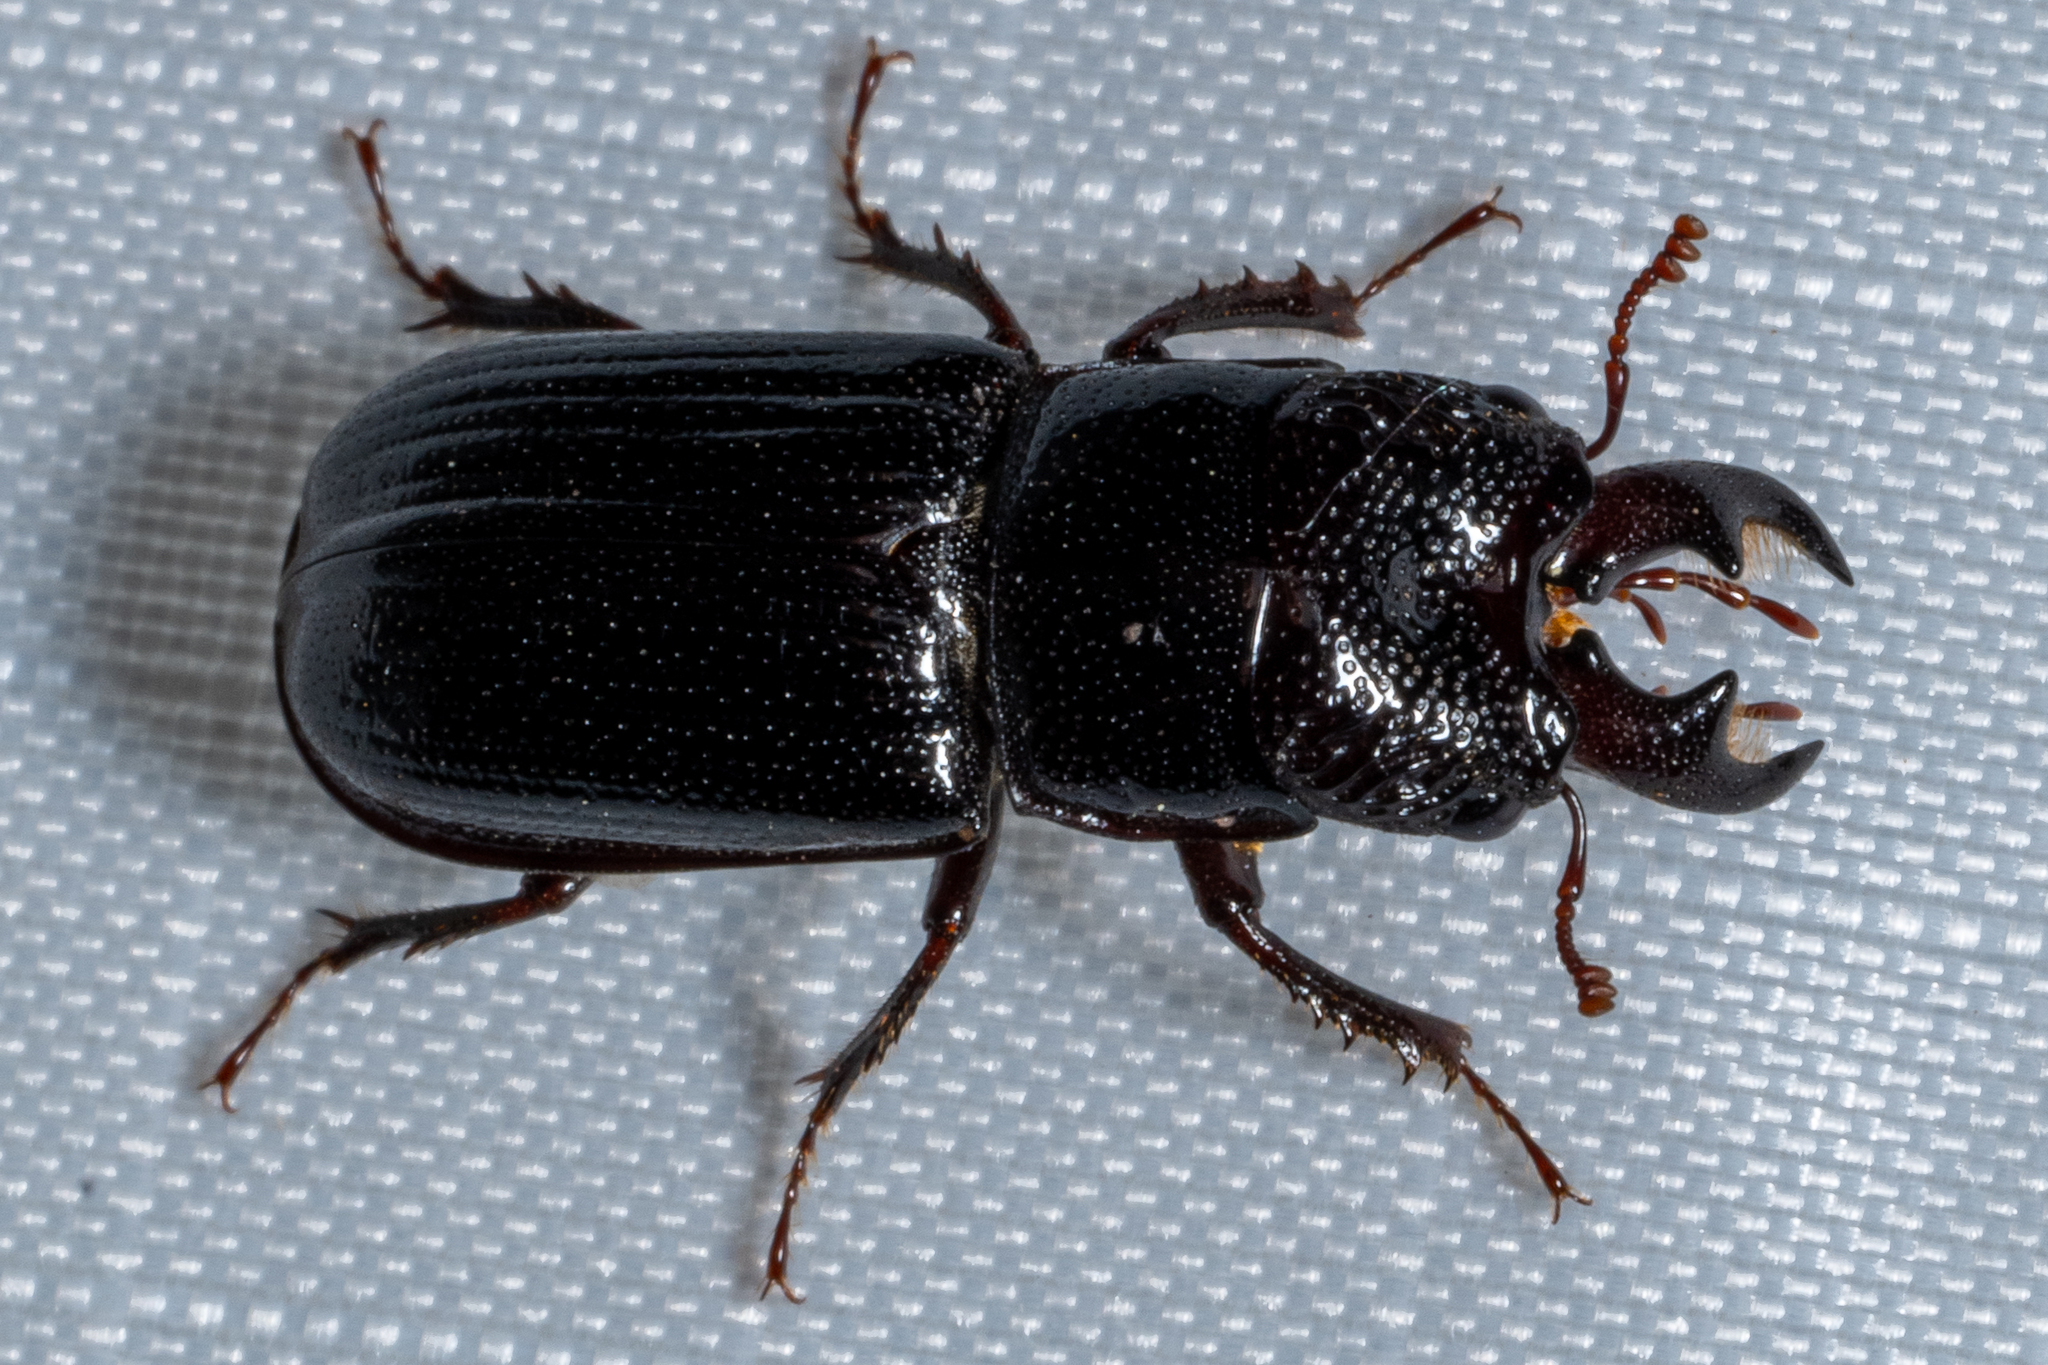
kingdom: Animalia
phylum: Arthropoda
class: Insecta
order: Coleoptera
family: Lucanidae
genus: Ceruchus
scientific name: Ceruchus piceus
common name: Red-rot decay stag beetle
